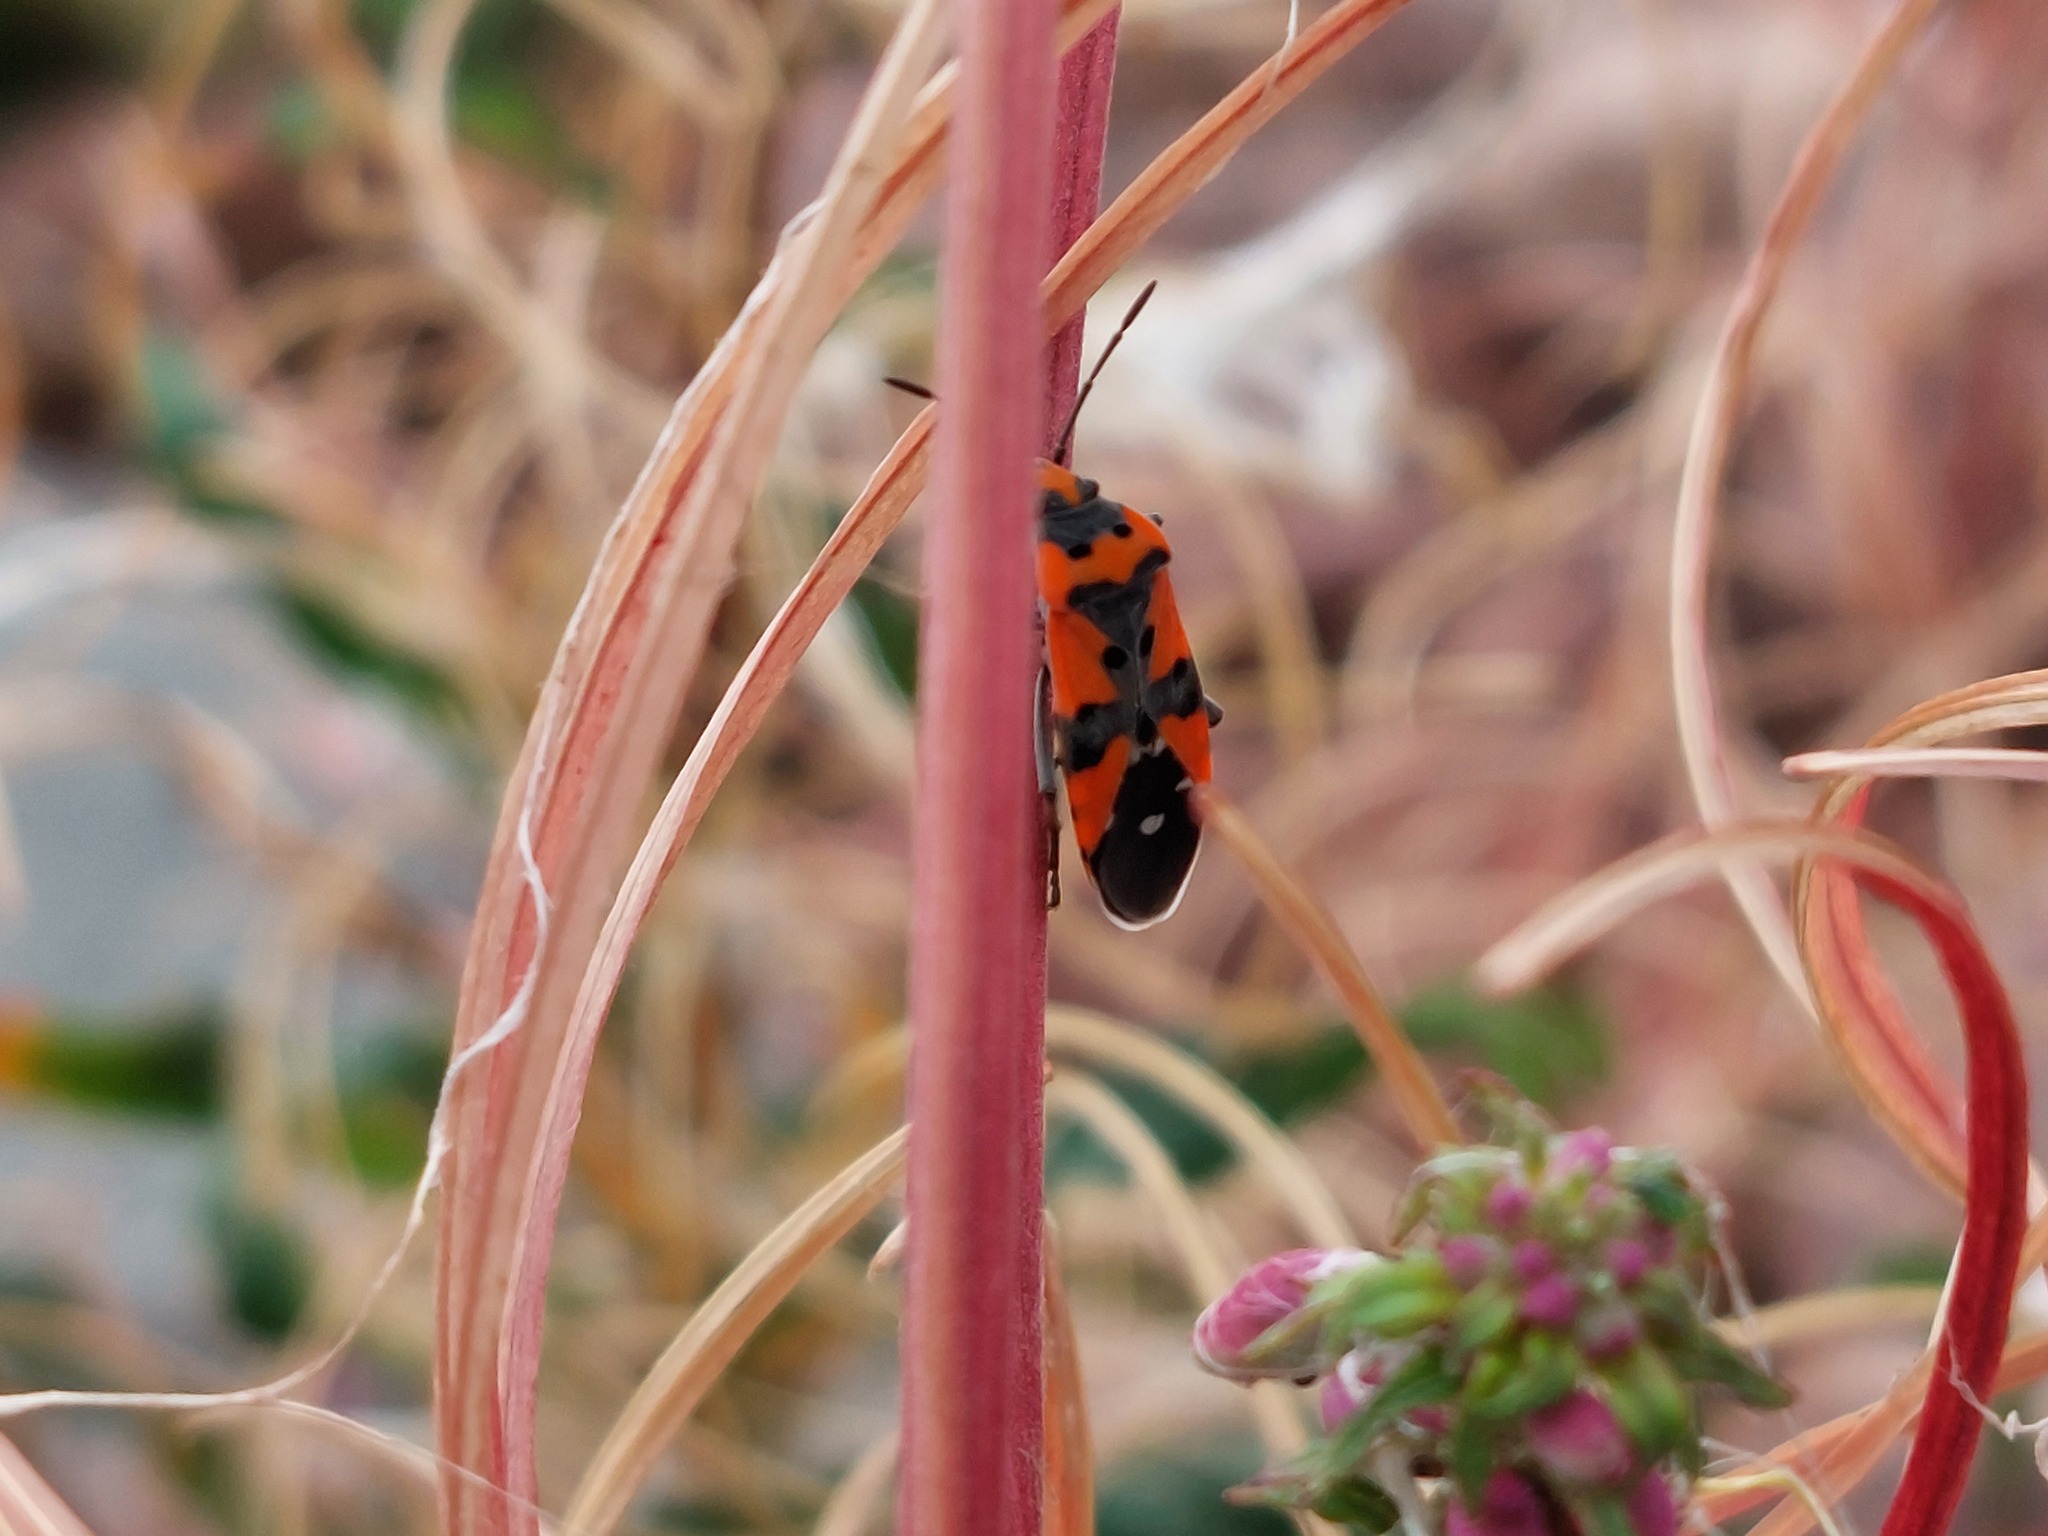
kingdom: Animalia
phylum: Arthropoda
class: Insecta
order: Hemiptera
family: Lygaeidae
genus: Lygaeus
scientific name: Lygaeus equestris
